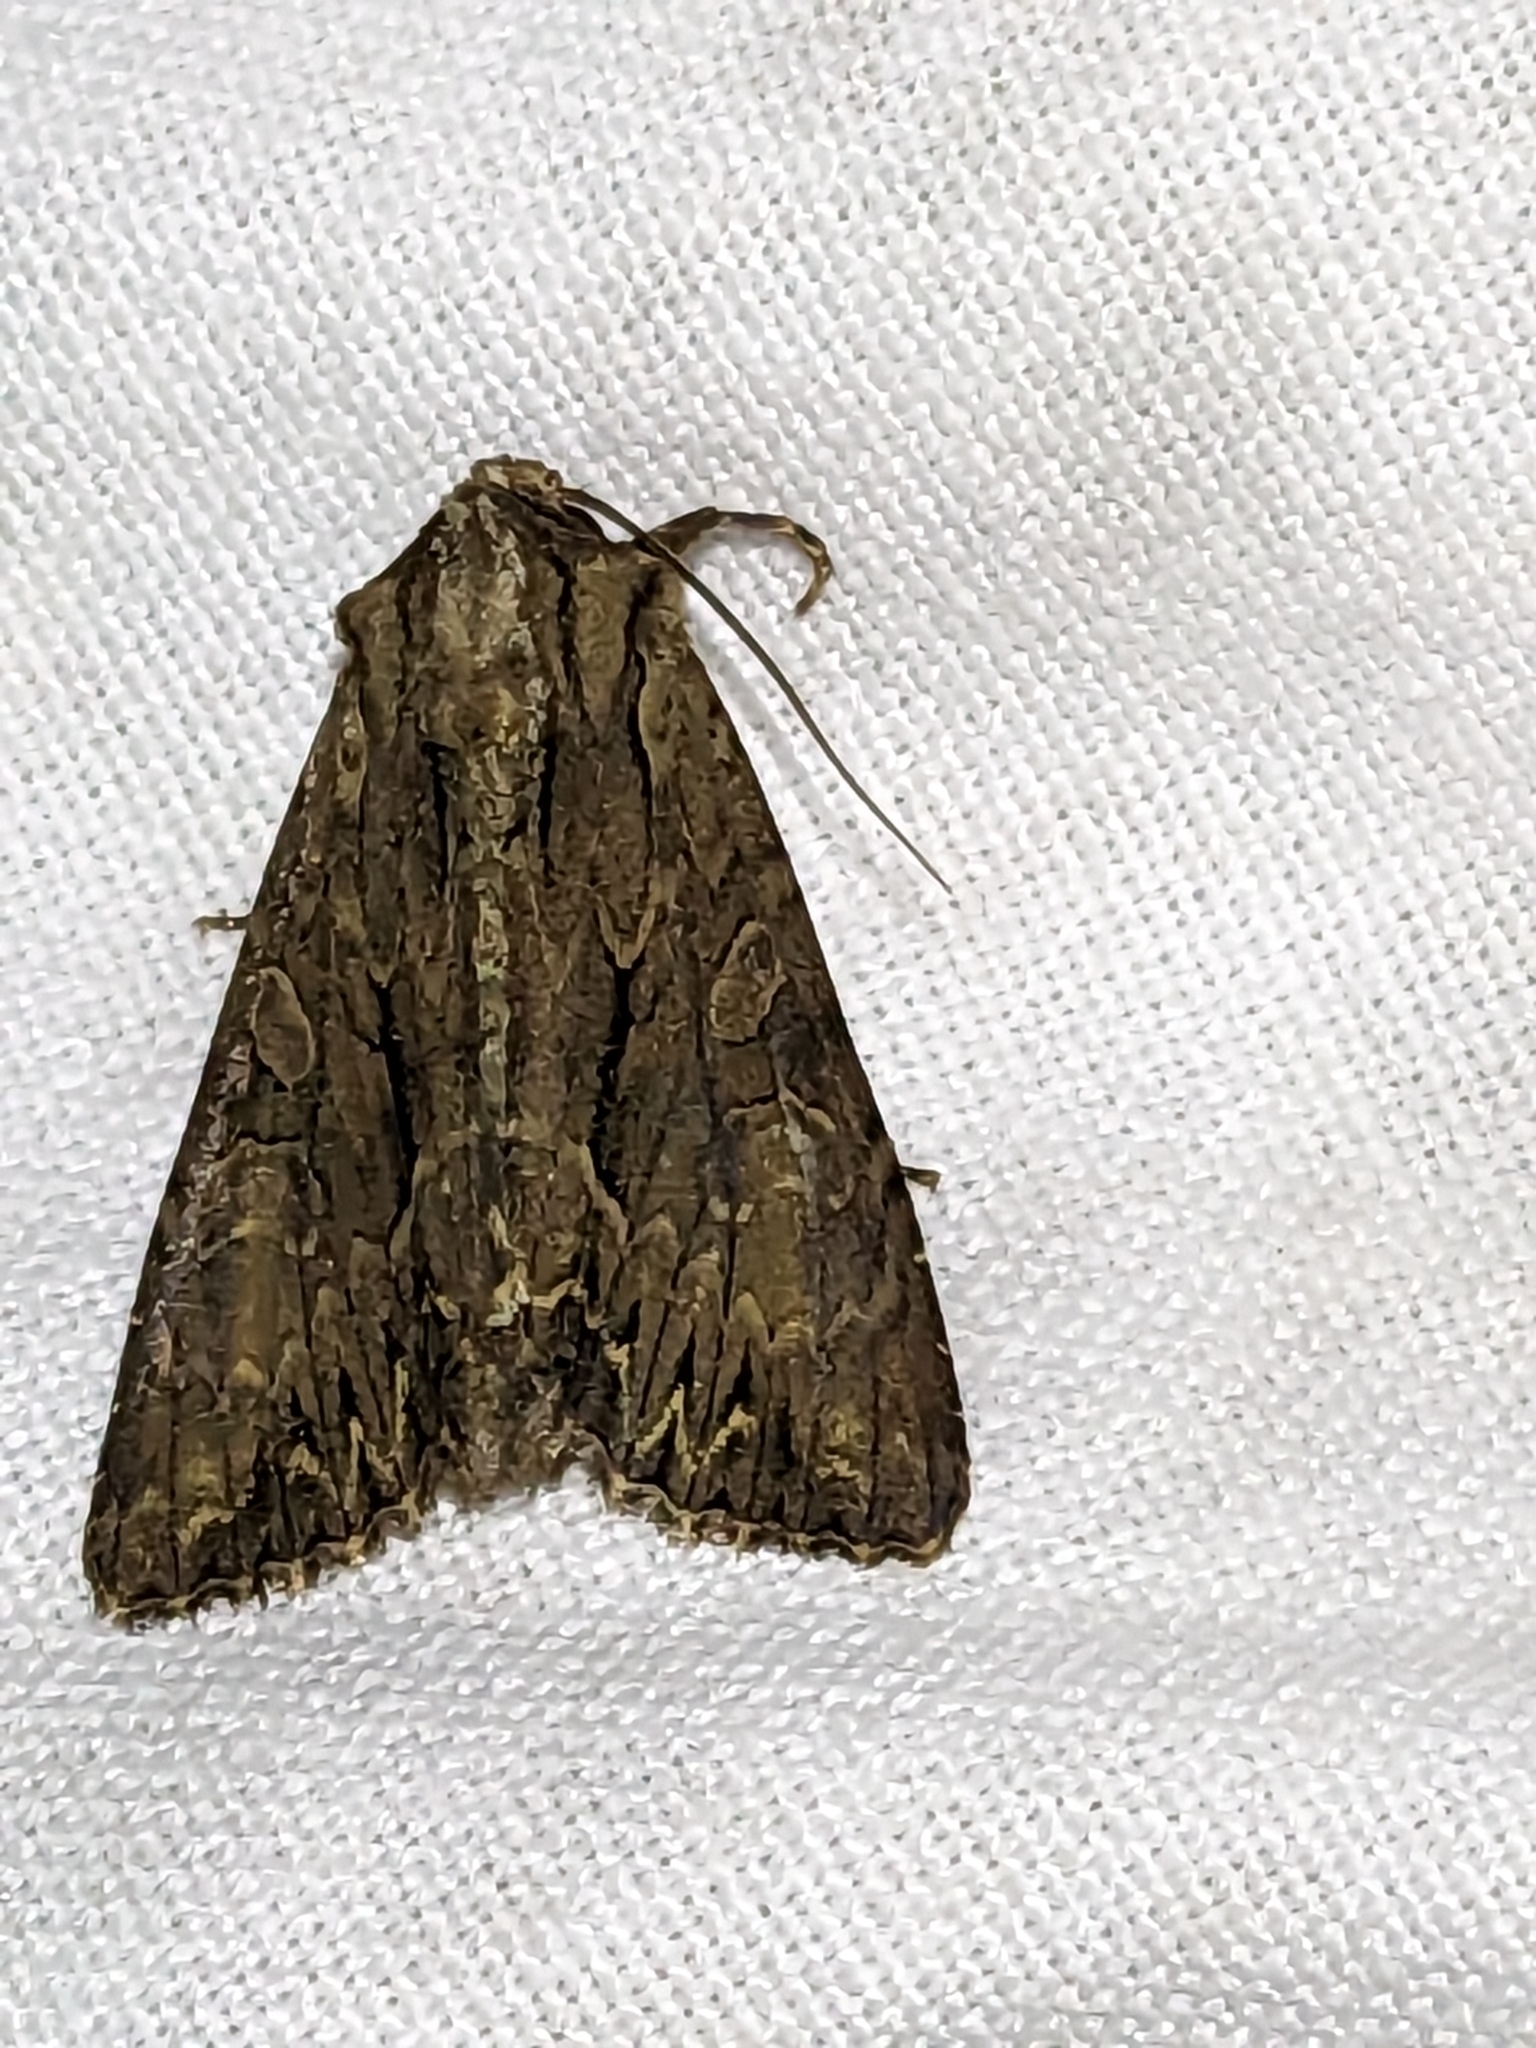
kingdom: Animalia
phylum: Arthropoda
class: Insecta
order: Lepidoptera
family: Noctuidae
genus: Apamea
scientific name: Apamea monoglypha
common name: Dark arches
